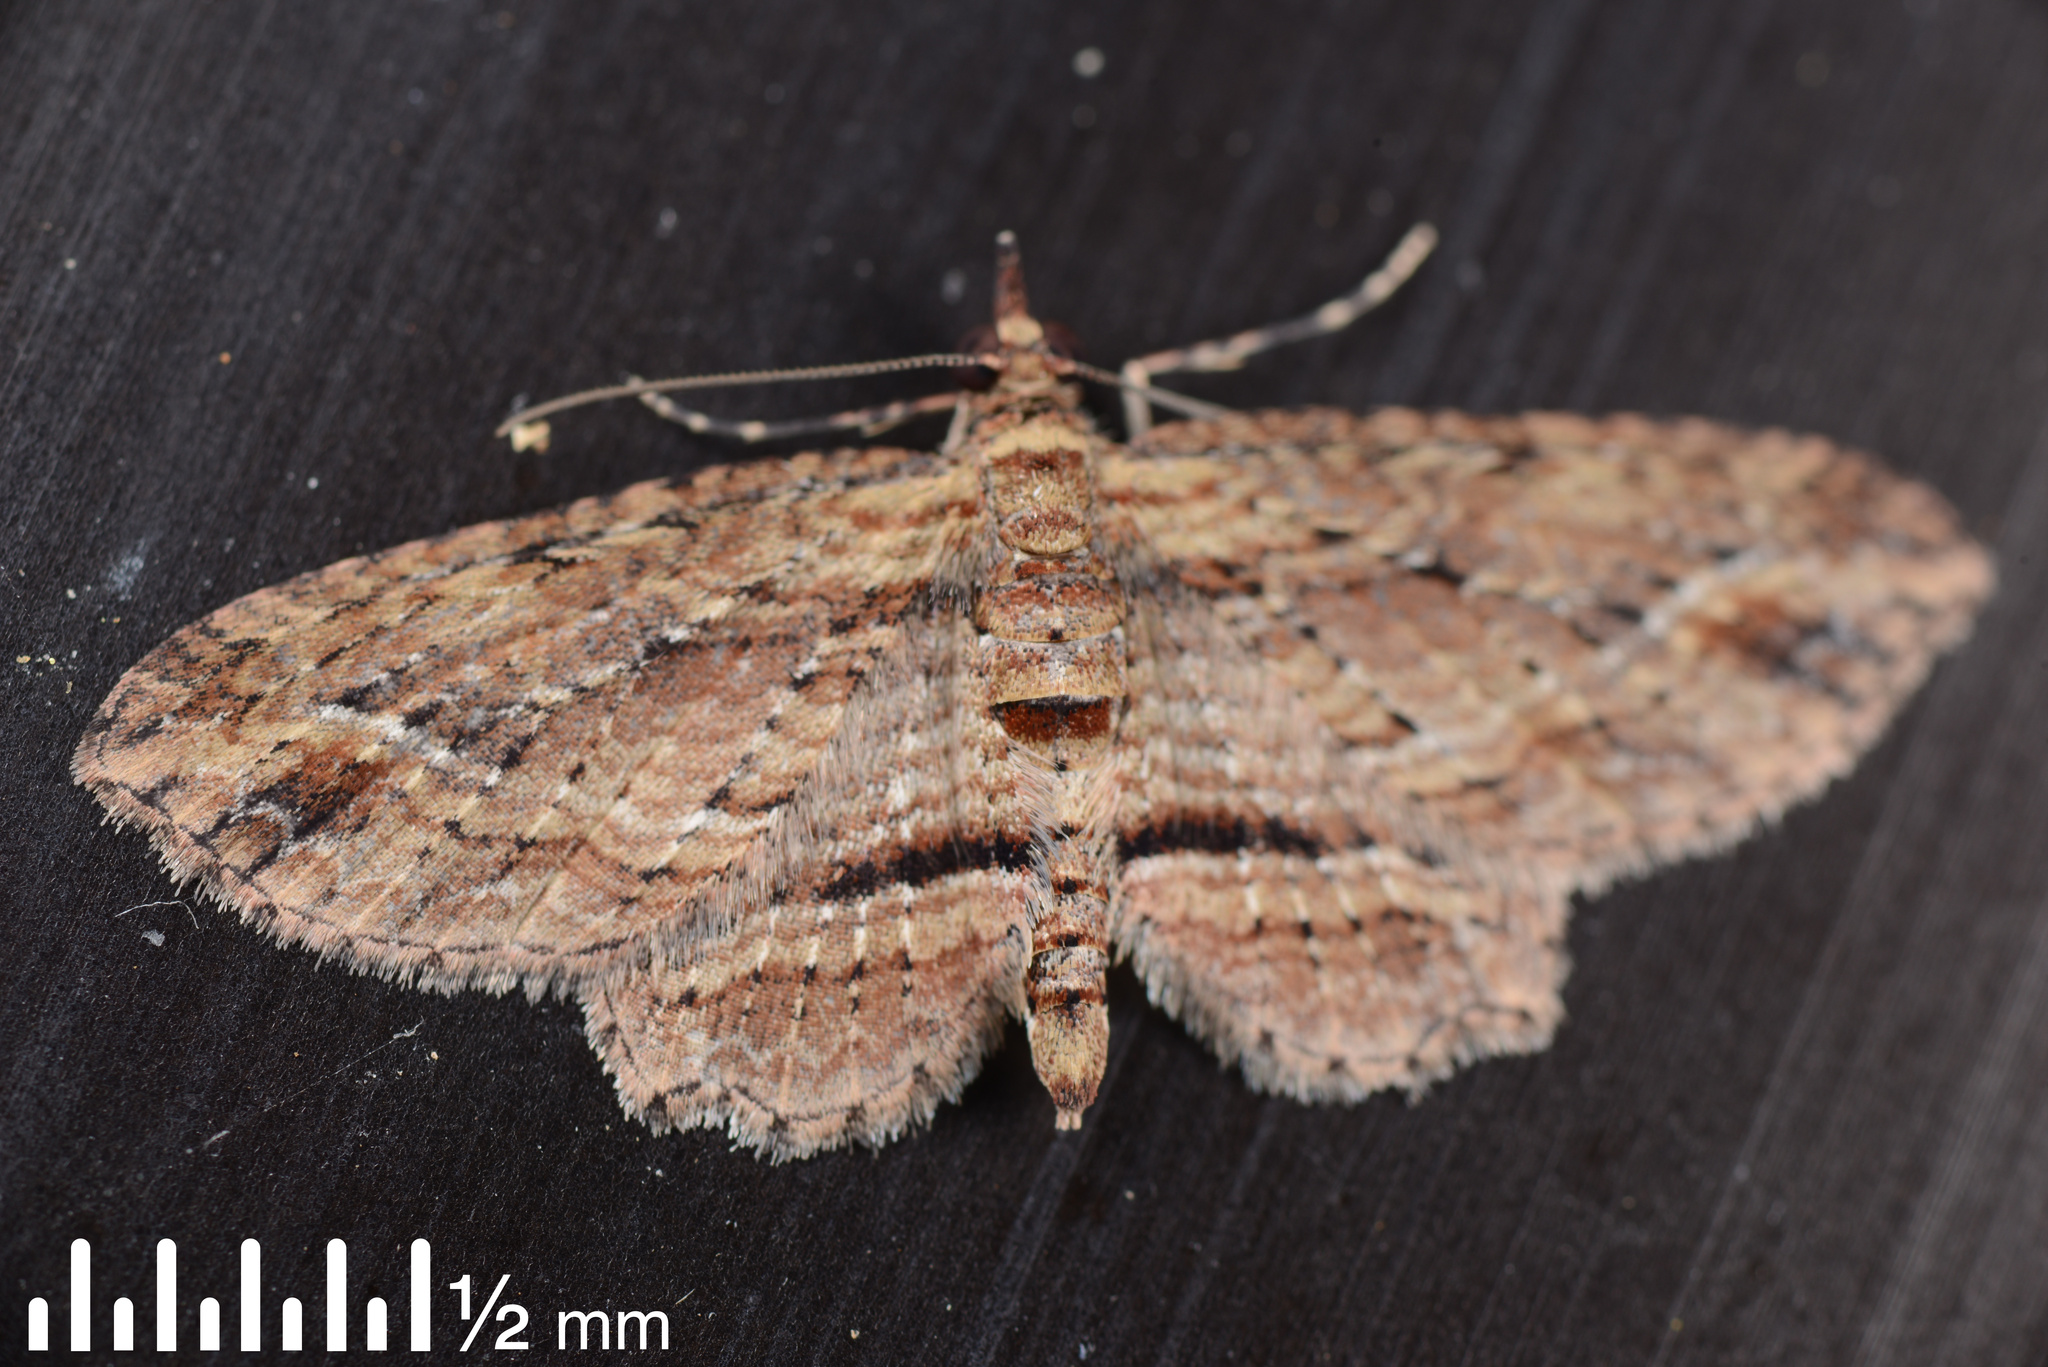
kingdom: Animalia
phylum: Arthropoda
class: Insecta
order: Lepidoptera
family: Geometridae
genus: Chloroclystis
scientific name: Chloroclystis filata
